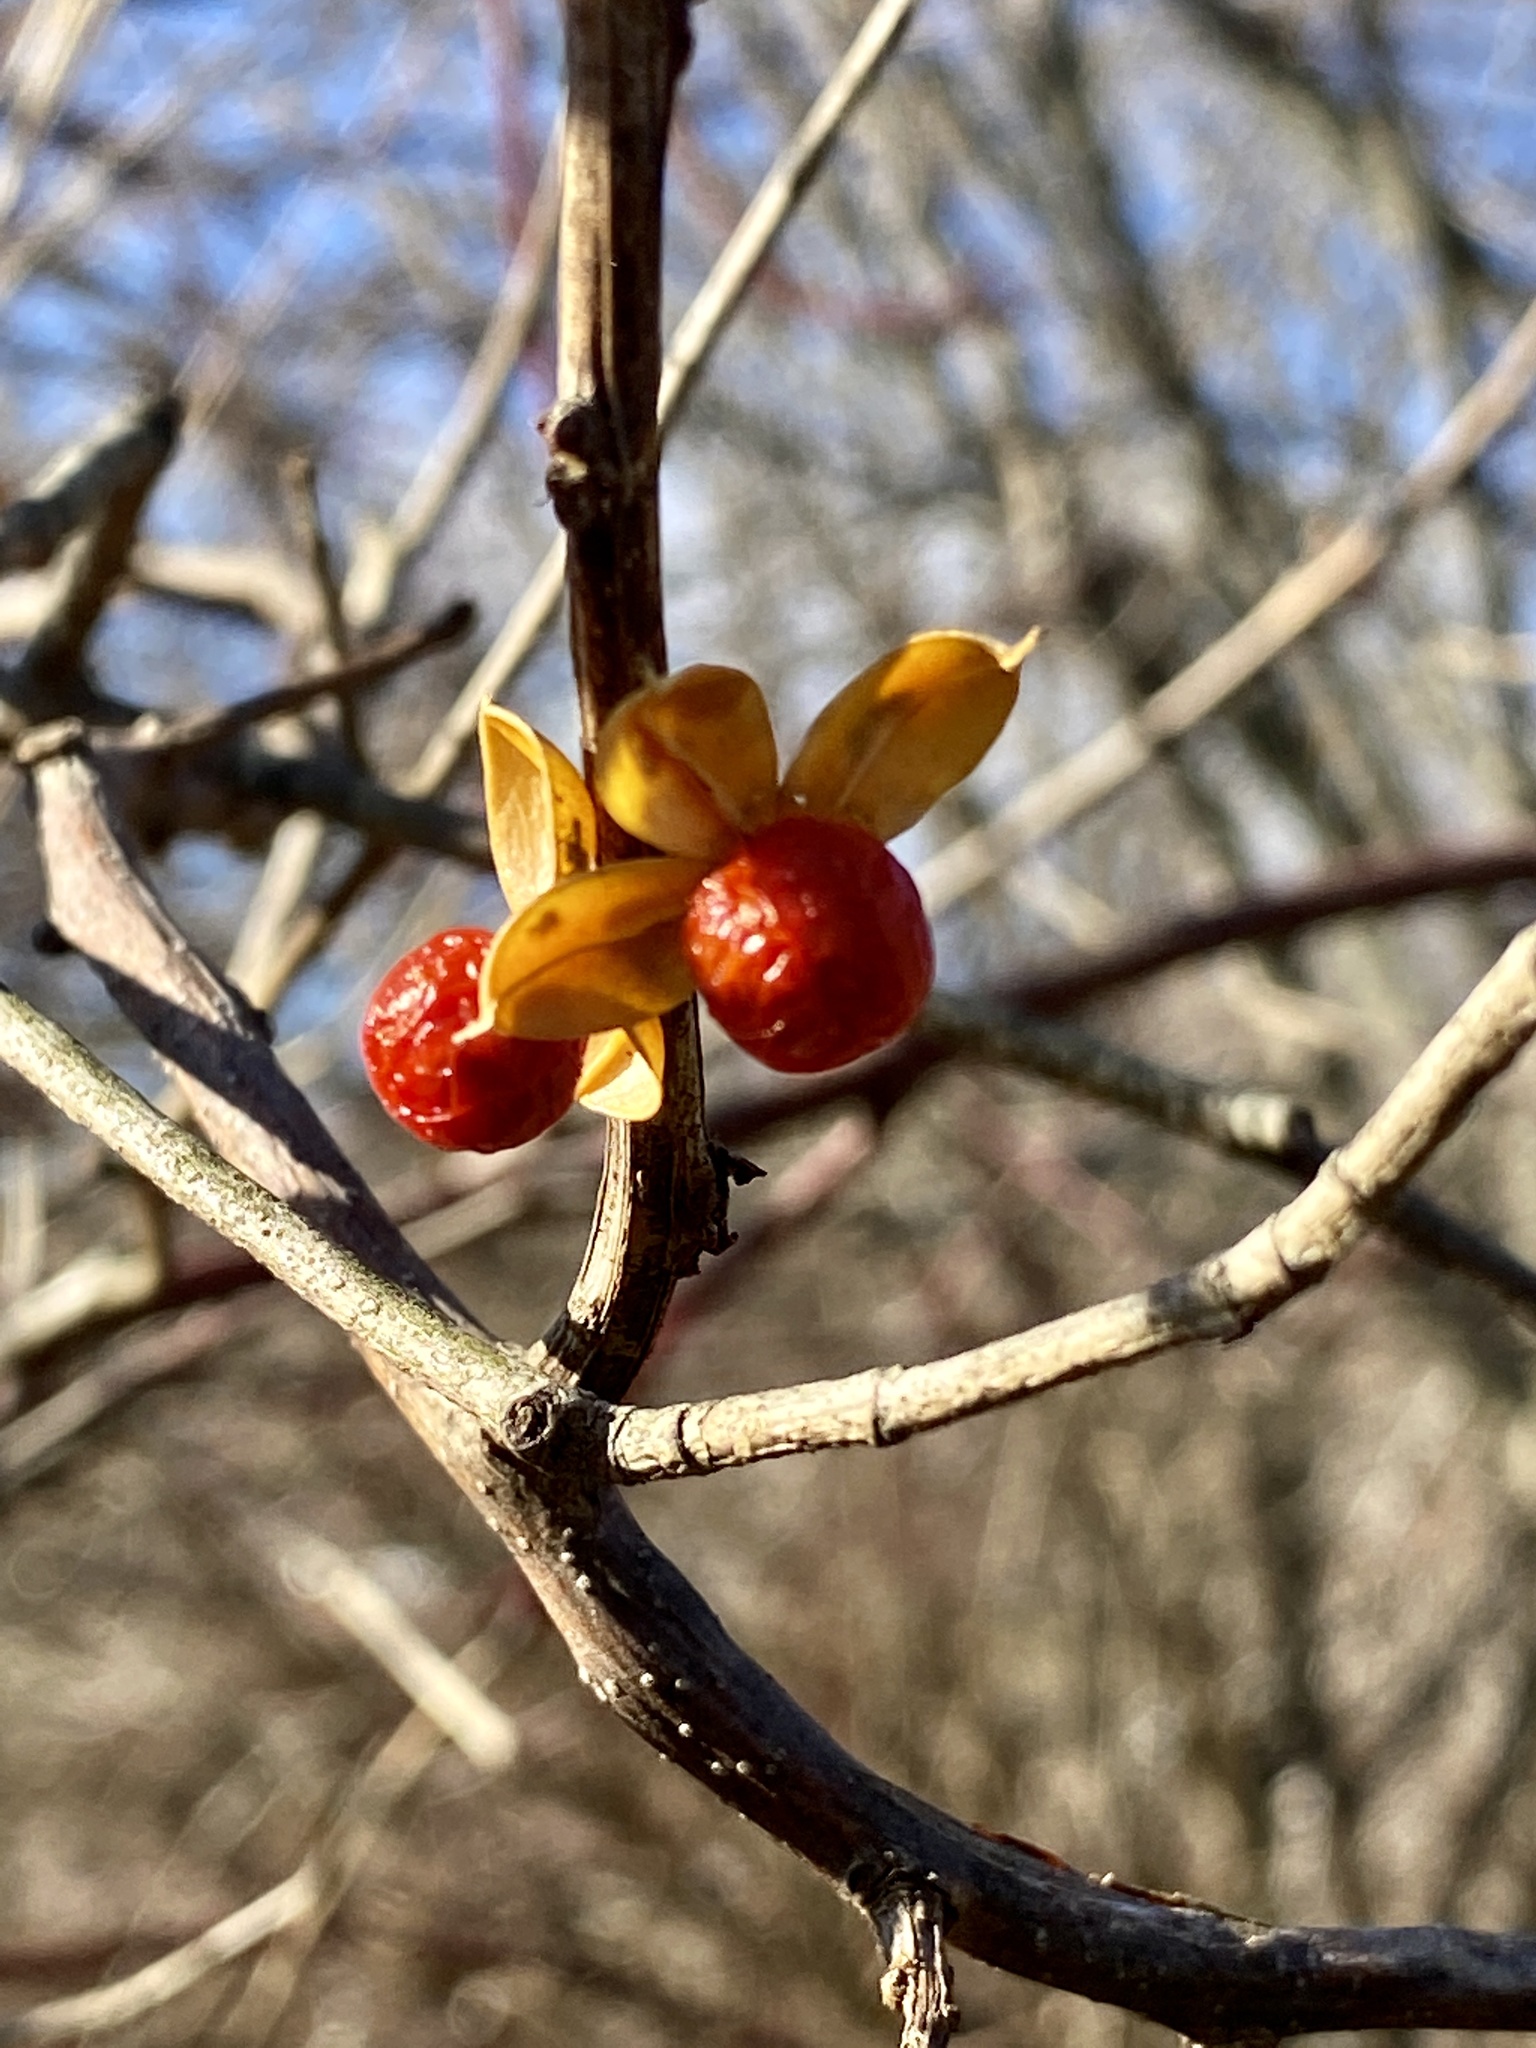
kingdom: Plantae
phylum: Tracheophyta
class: Magnoliopsida
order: Celastrales
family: Celastraceae
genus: Celastrus
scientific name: Celastrus orbiculatus
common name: Oriental bittersweet
